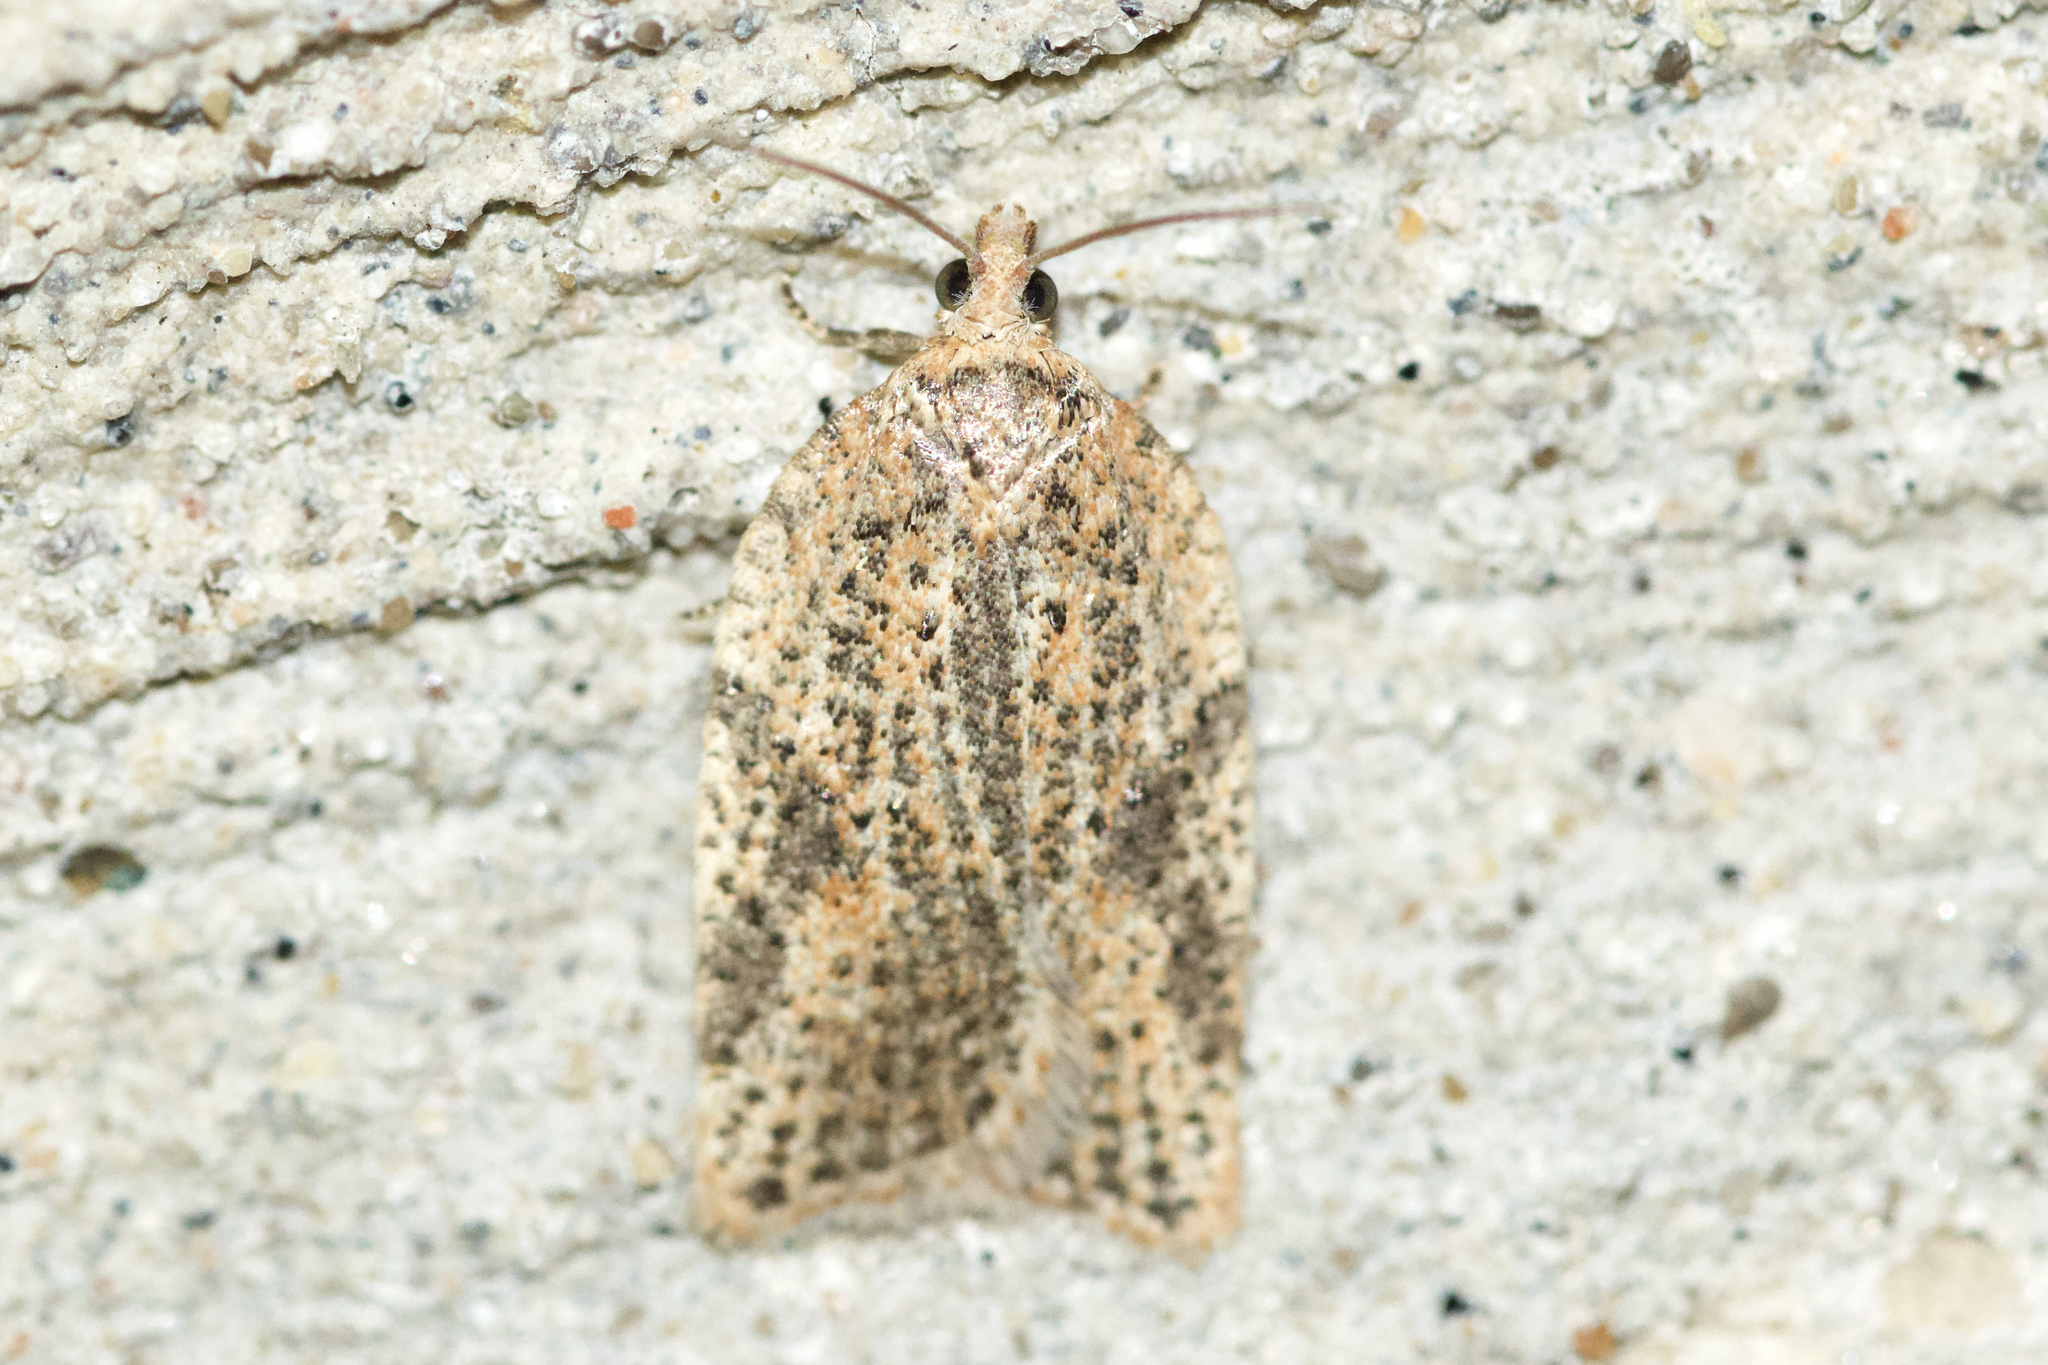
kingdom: Animalia
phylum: Arthropoda
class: Insecta
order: Lepidoptera
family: Tortricidae
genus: Acleris
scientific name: Acleris negundana
